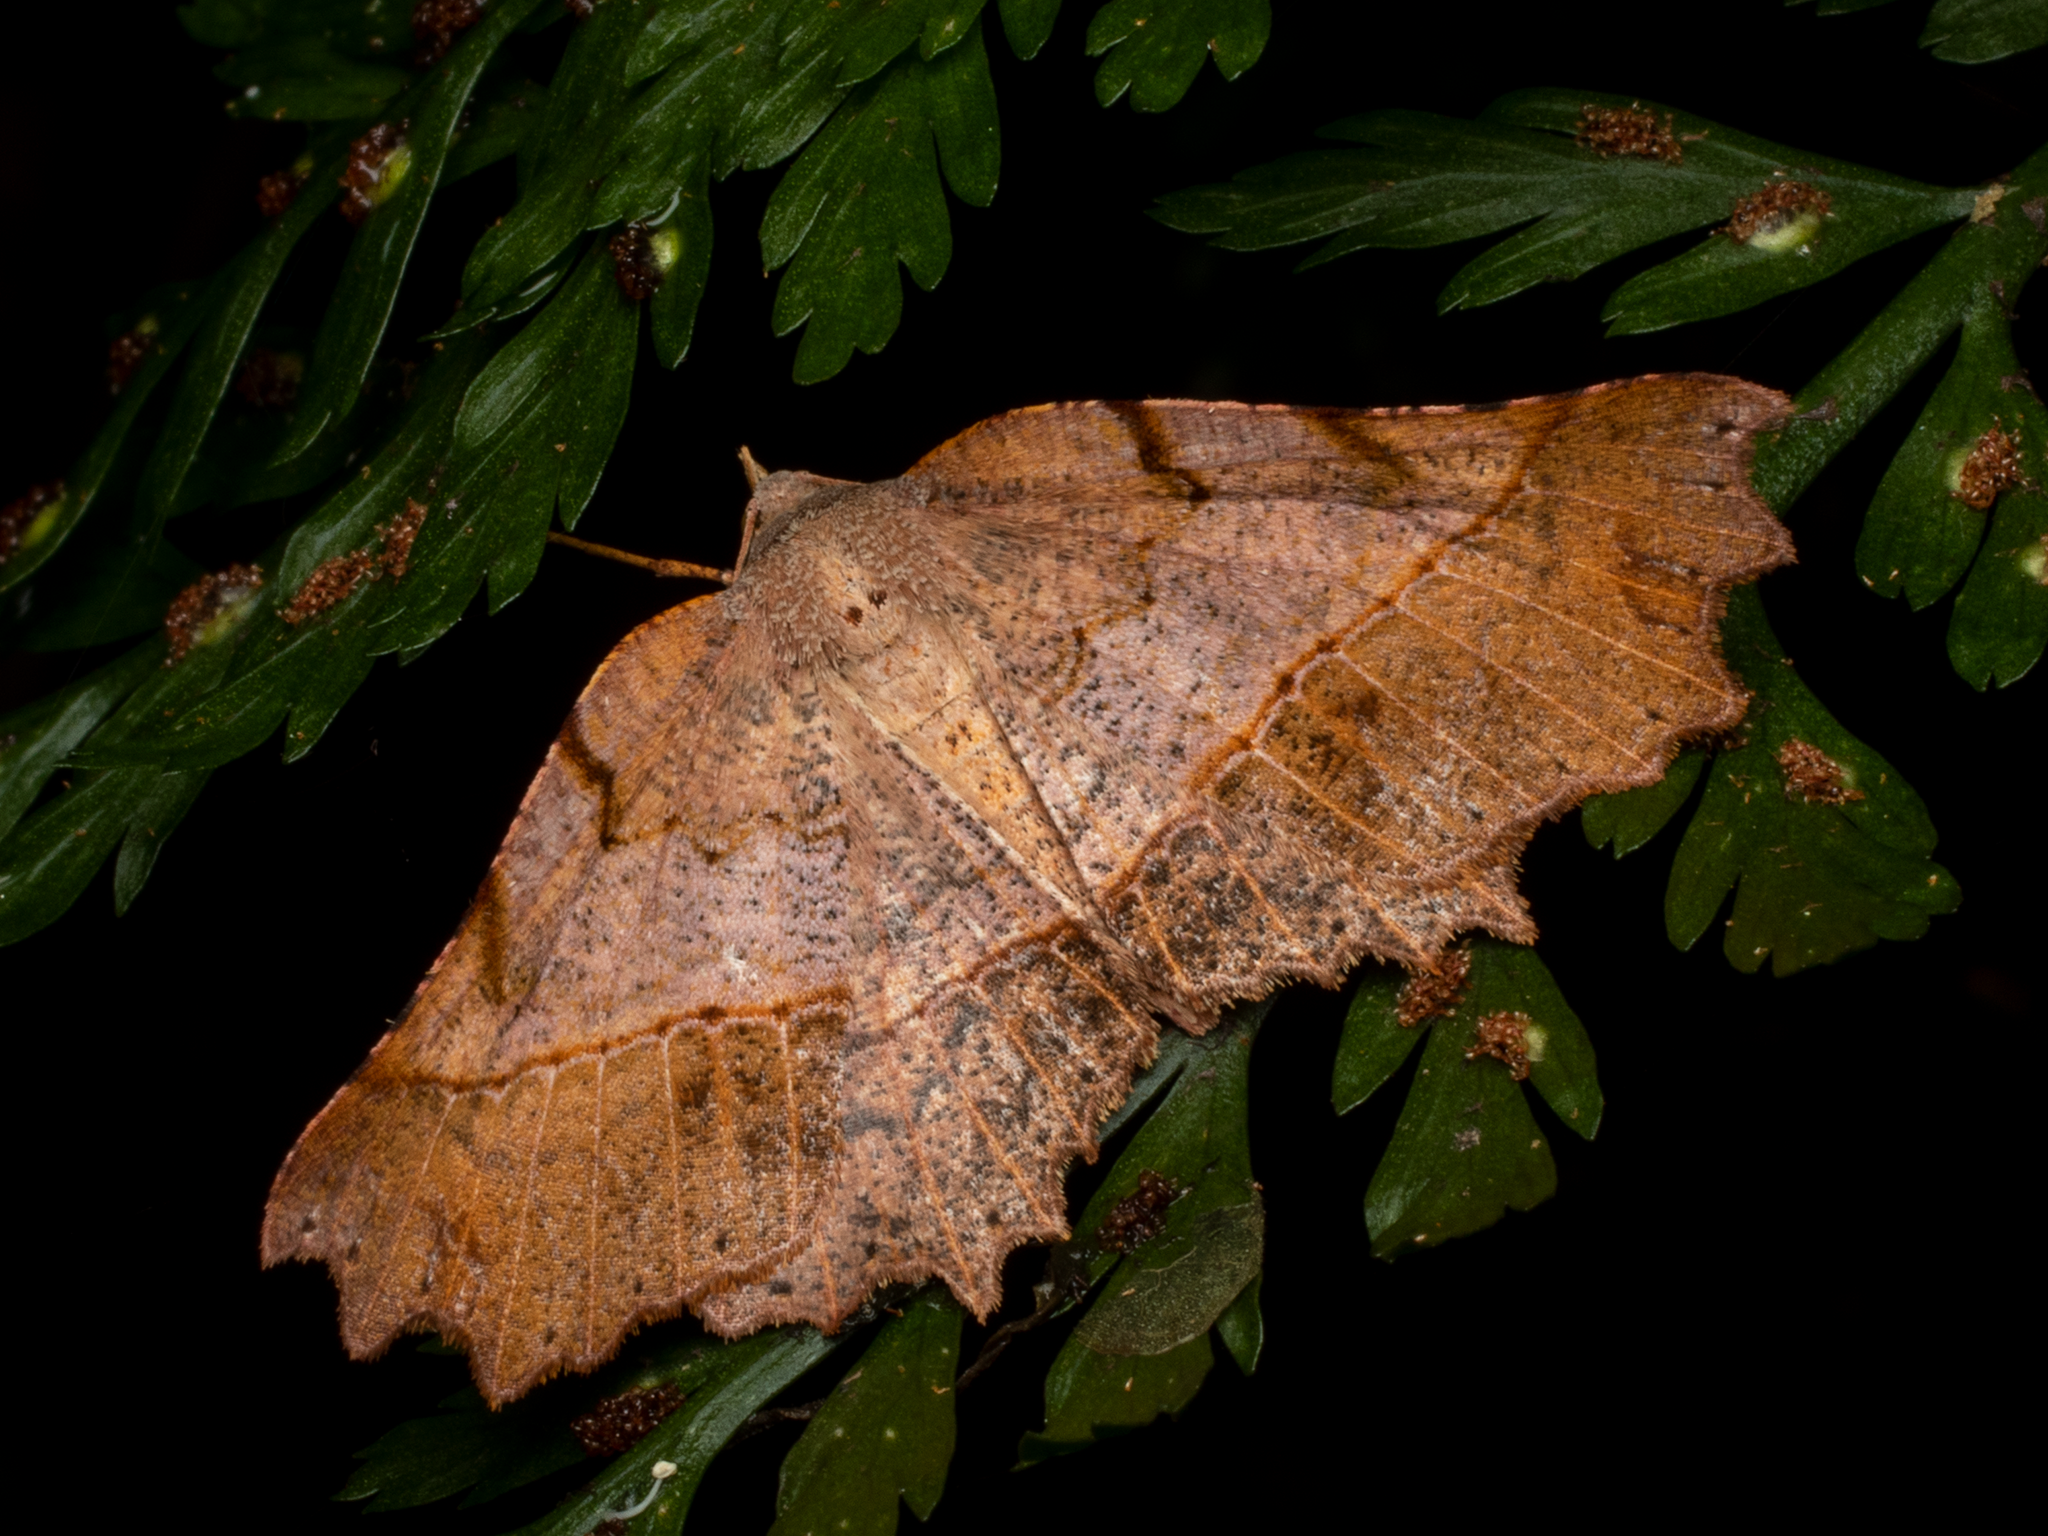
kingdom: Animalia
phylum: Arthropoda
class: Insecta
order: Lepidoptera
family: Geometridae
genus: Ischalis
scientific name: Ischalis gallaria
